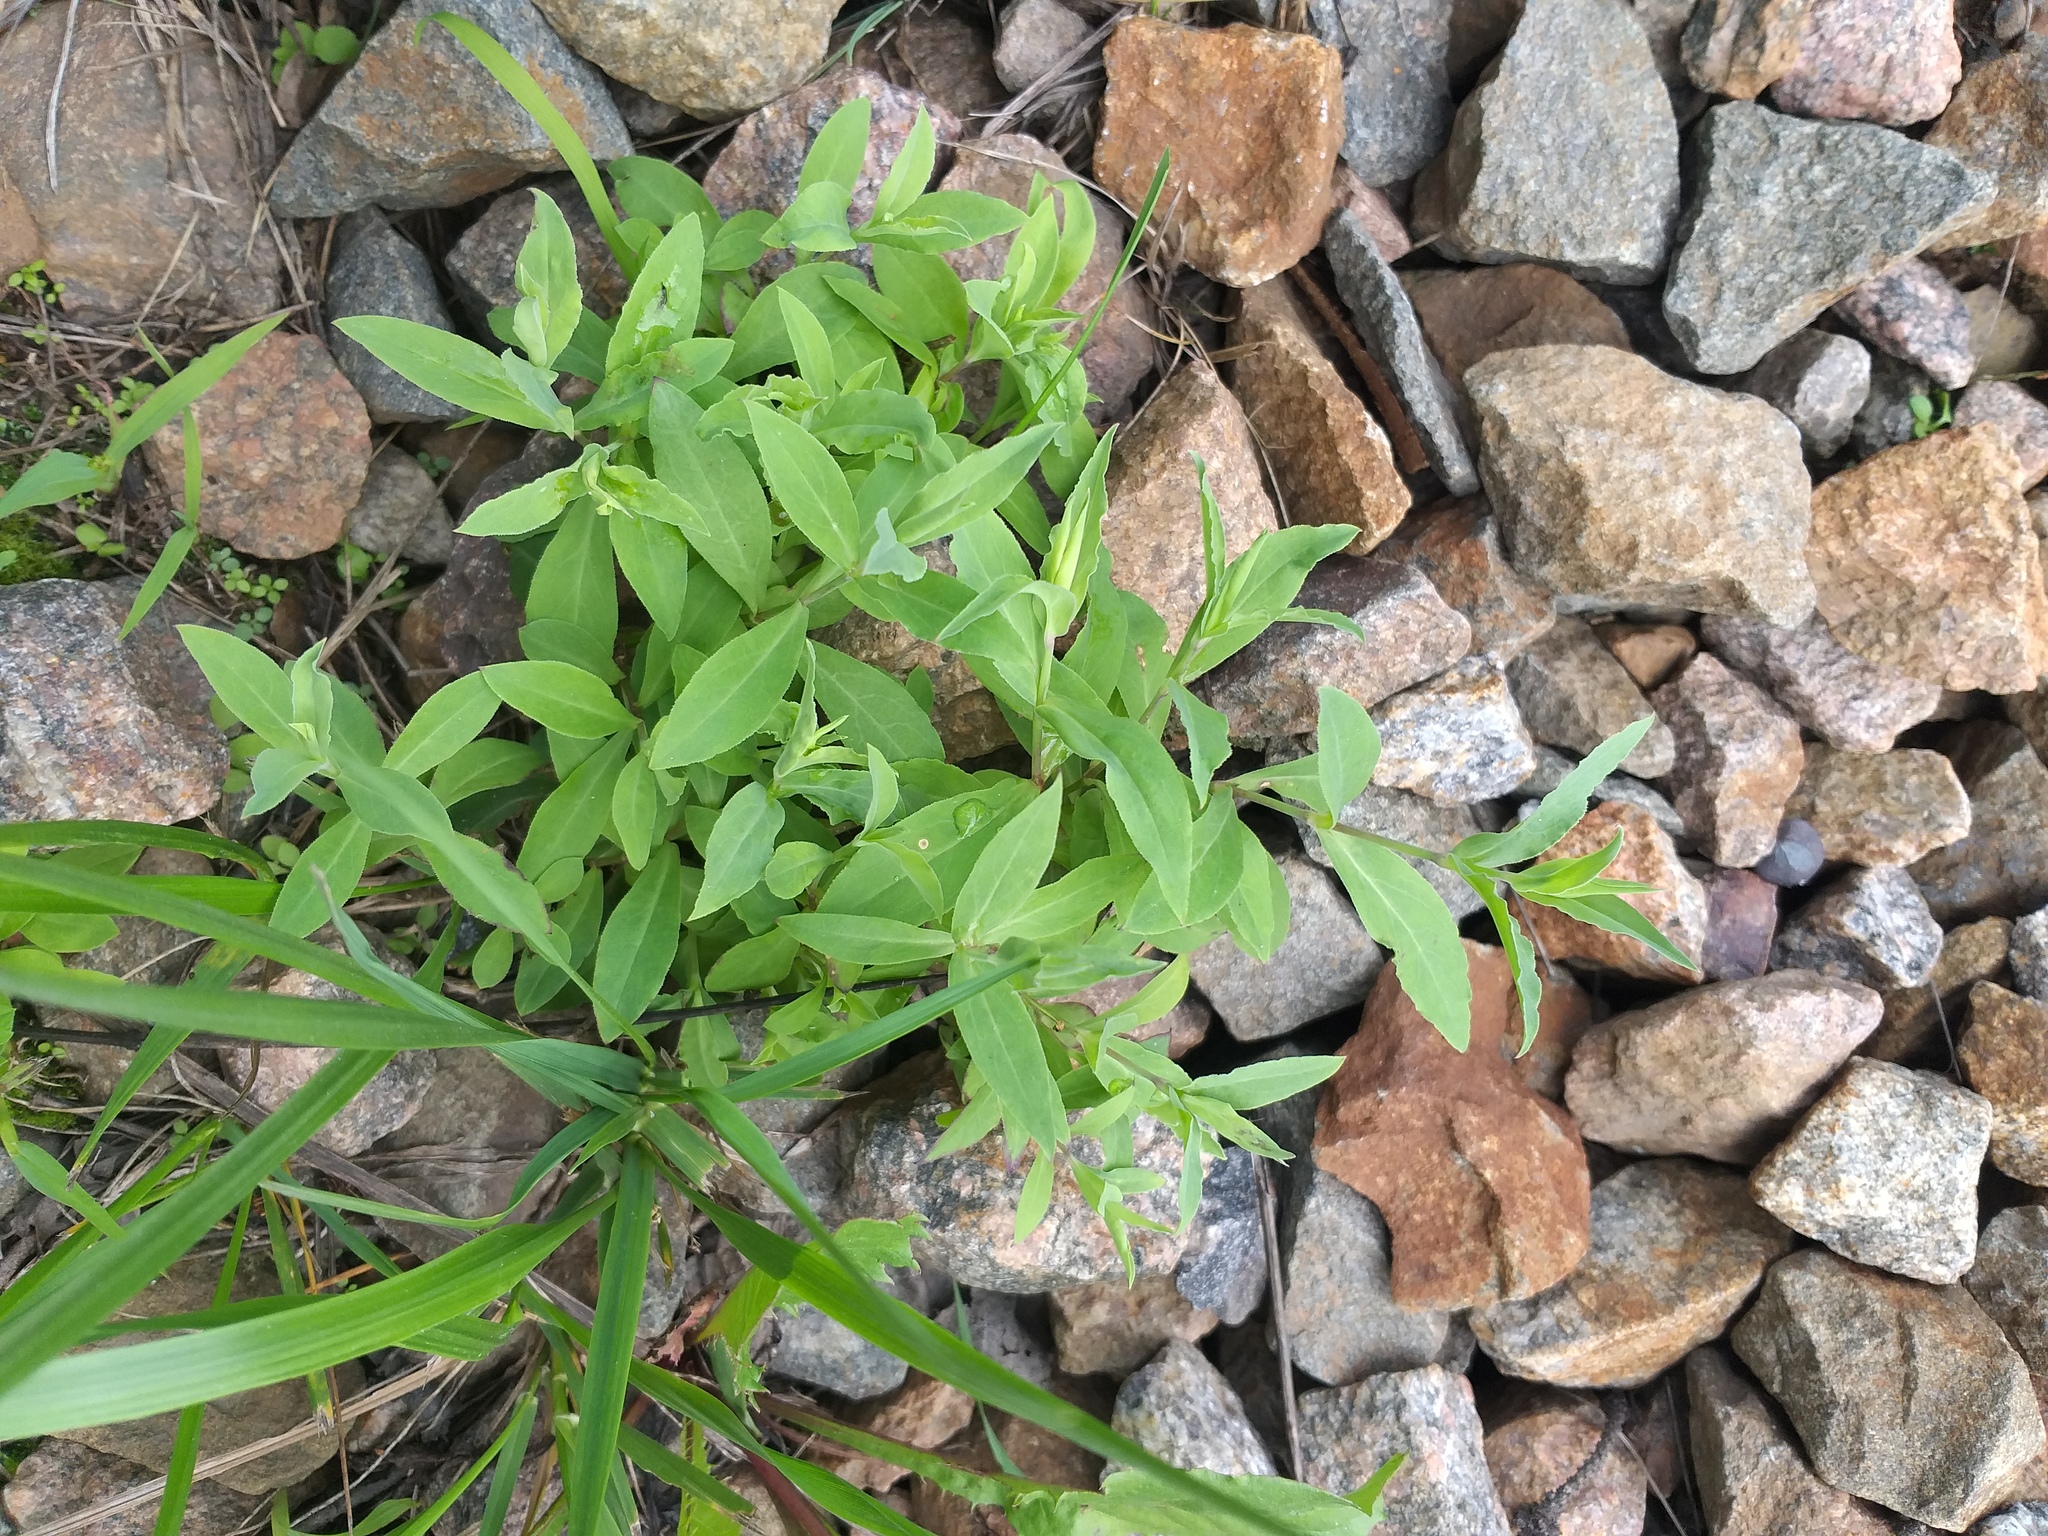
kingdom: Plantae
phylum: Tracheophyta
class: Magnoliopsida
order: Caryophyllales
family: Caryophyllaceae
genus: Silene
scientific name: Silene vulgaris
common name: Bladder campion
